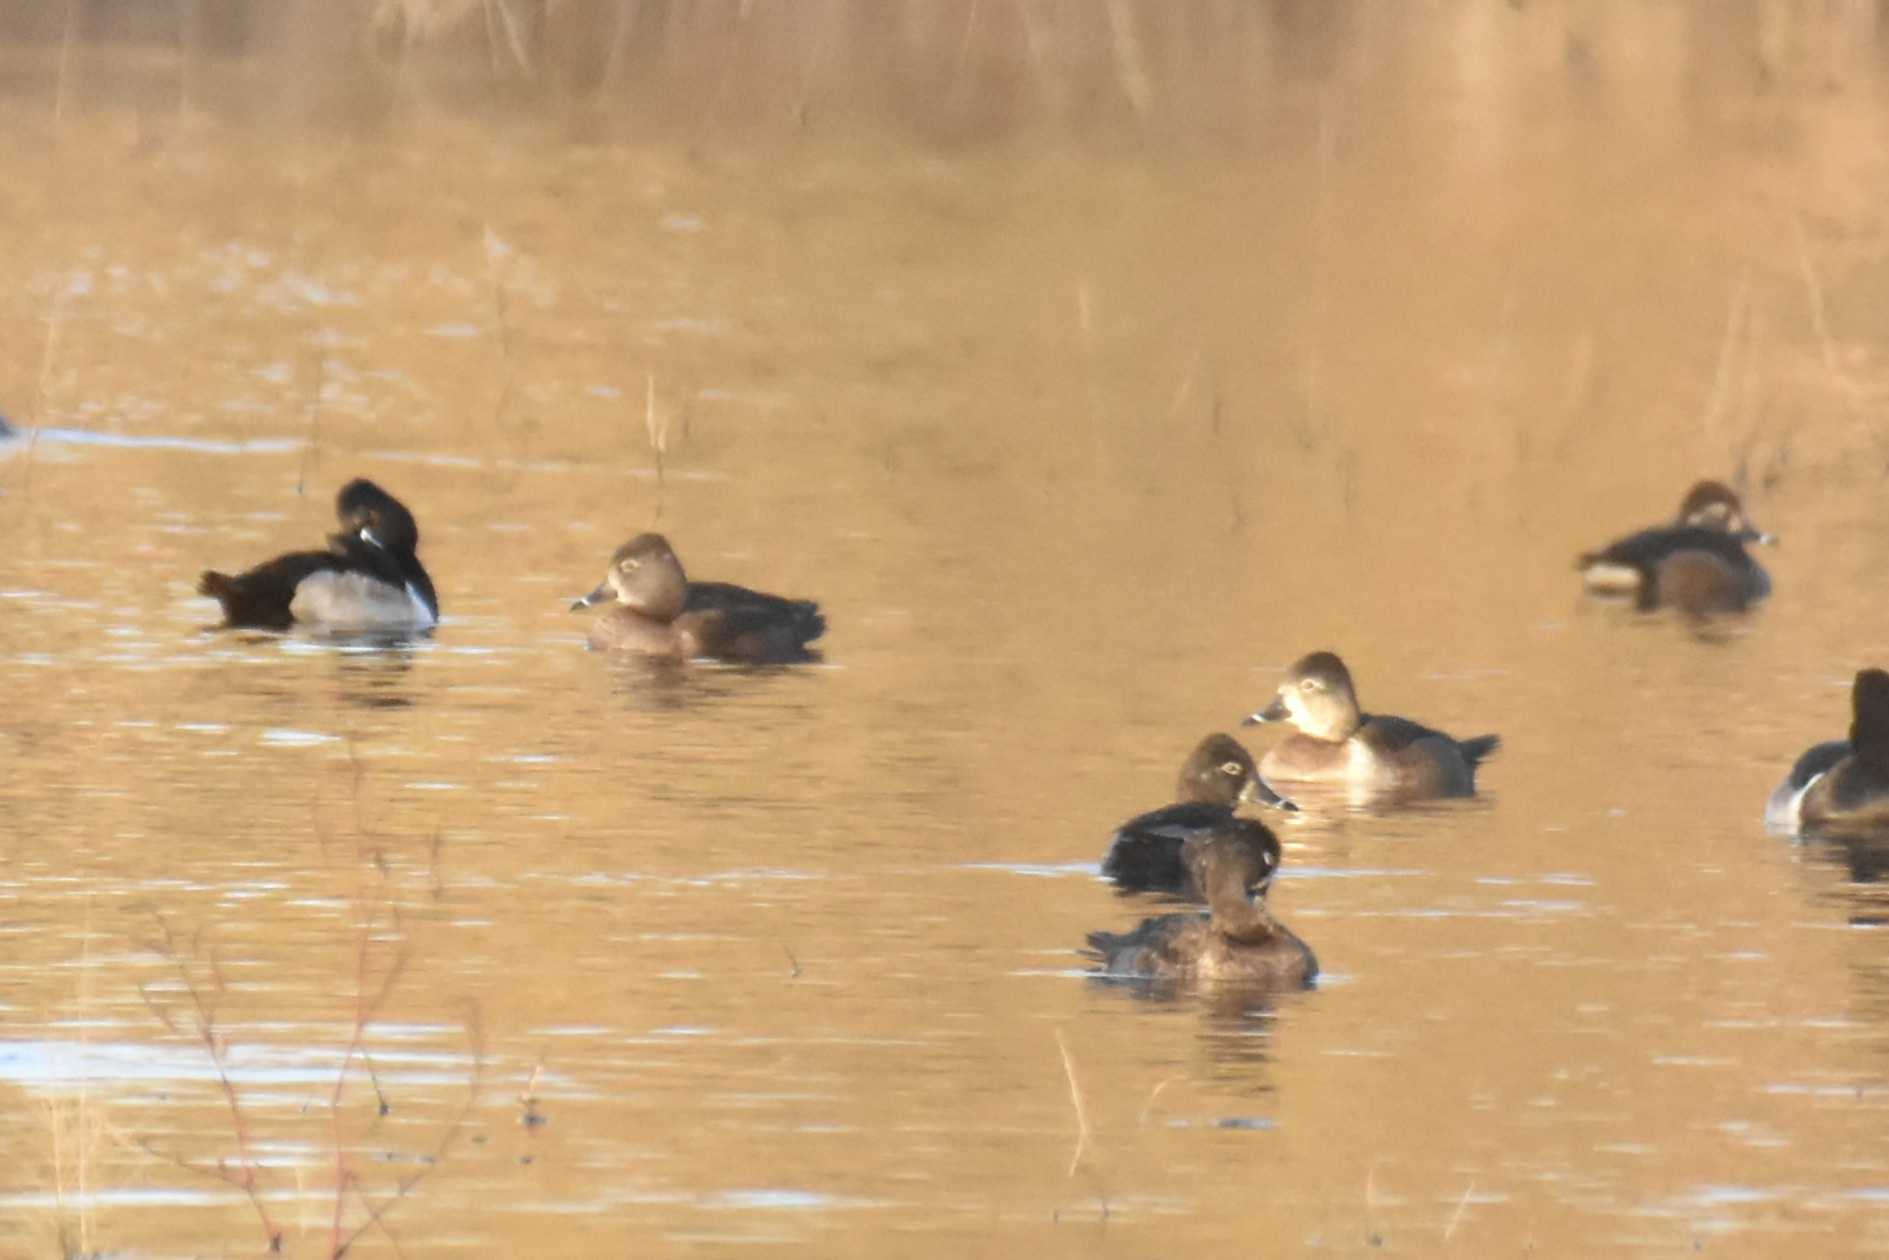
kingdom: Animalia
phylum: Chordata
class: Aves
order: Anseriformes
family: Anatidae
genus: Aythya
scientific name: Aythya collaris
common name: Ring-necked duck
